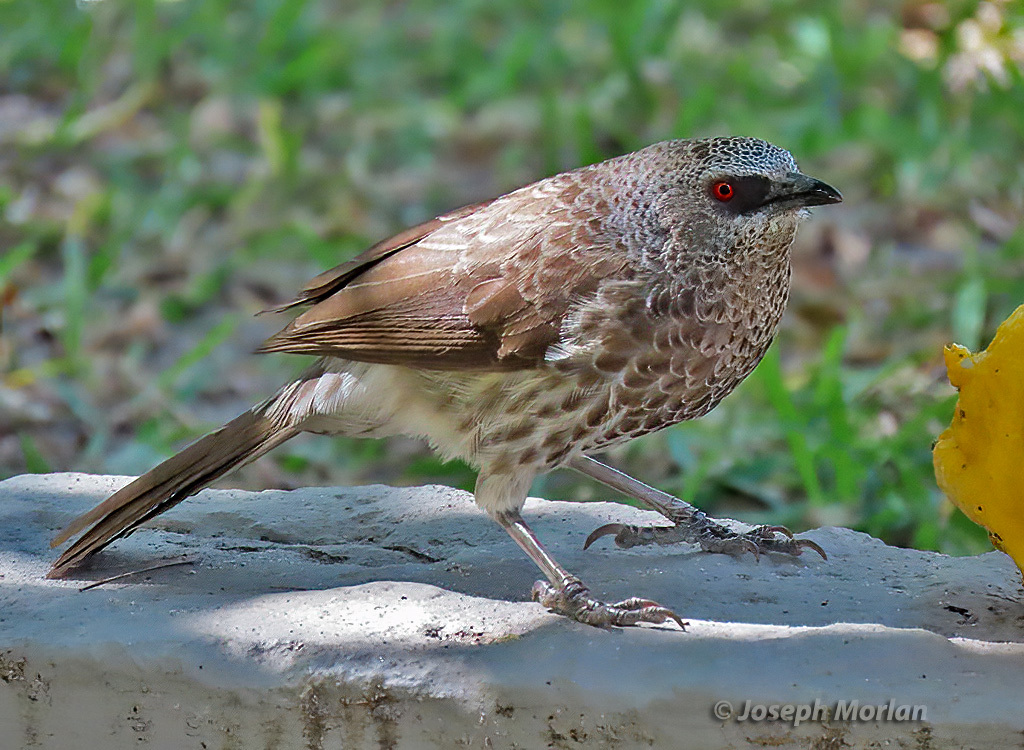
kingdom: Animalia
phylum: Chordata
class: Aves
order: Passeriformes
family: Leiothrichidae
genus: Turdoides
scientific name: Turdoides hartlaubii
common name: Hartlaub's babbler
